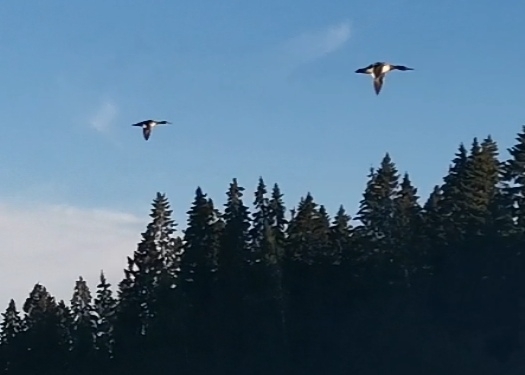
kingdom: Animalia
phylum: Chordata
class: Aves
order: Anseriformes
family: Anatidae
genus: Mergus
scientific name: Mergus merganser
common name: Common merganser
